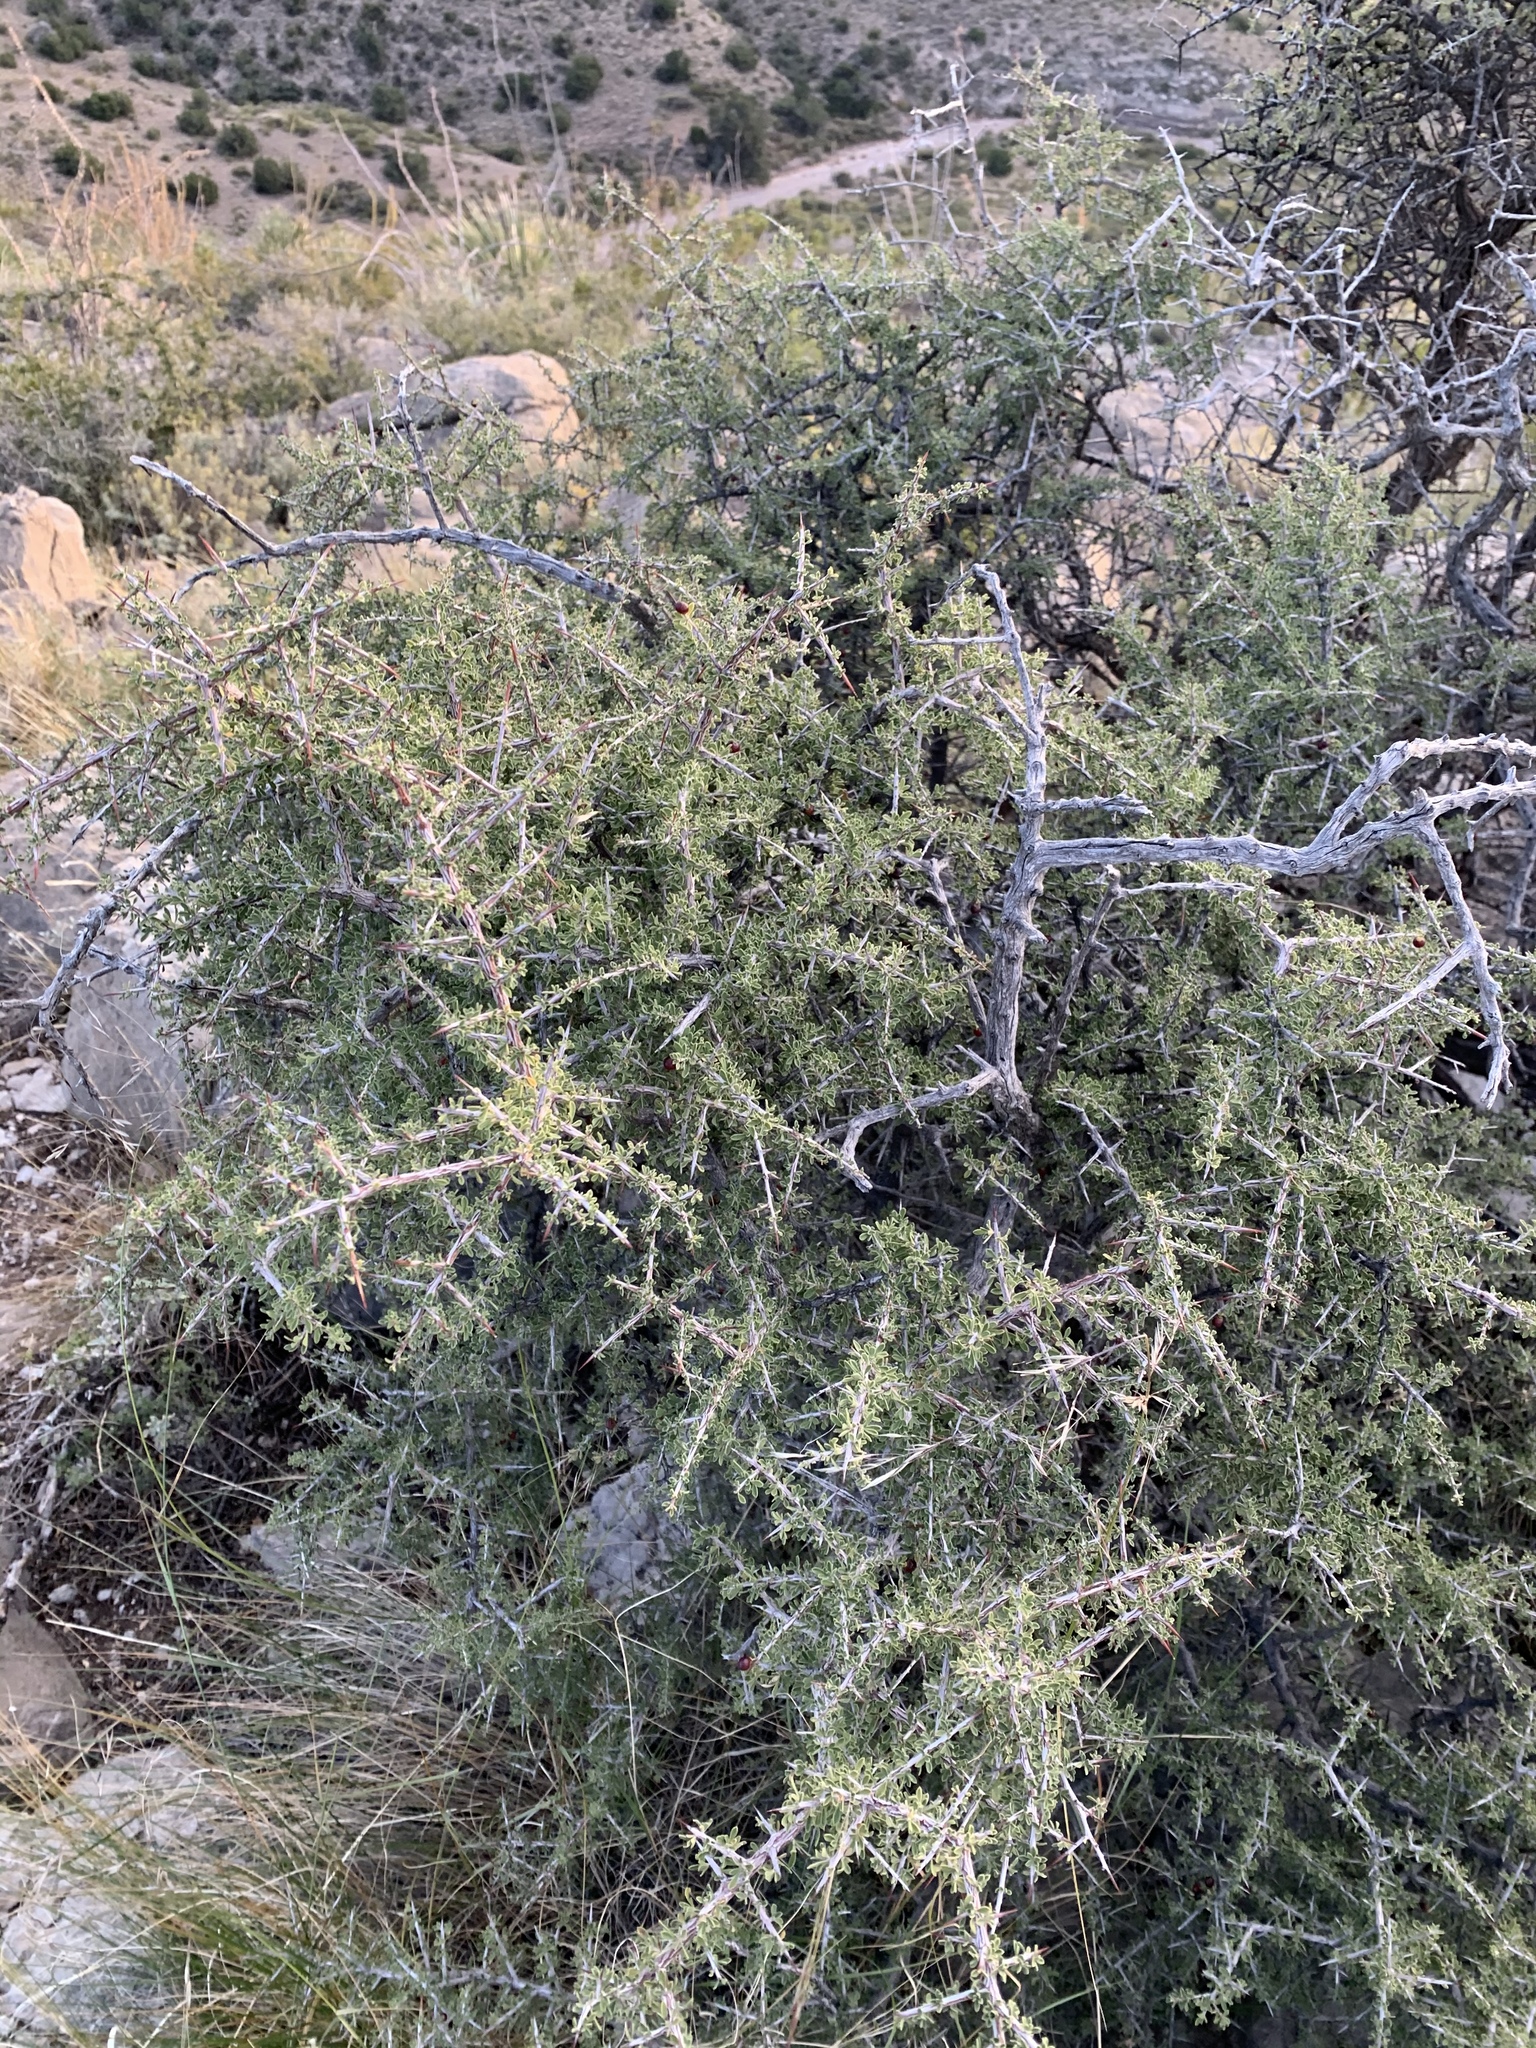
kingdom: Plantae
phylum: Tracheophyta
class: Magnoliopsida
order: Rosales
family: Rhamnaceae
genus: Condalia
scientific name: Condalia warnockii
